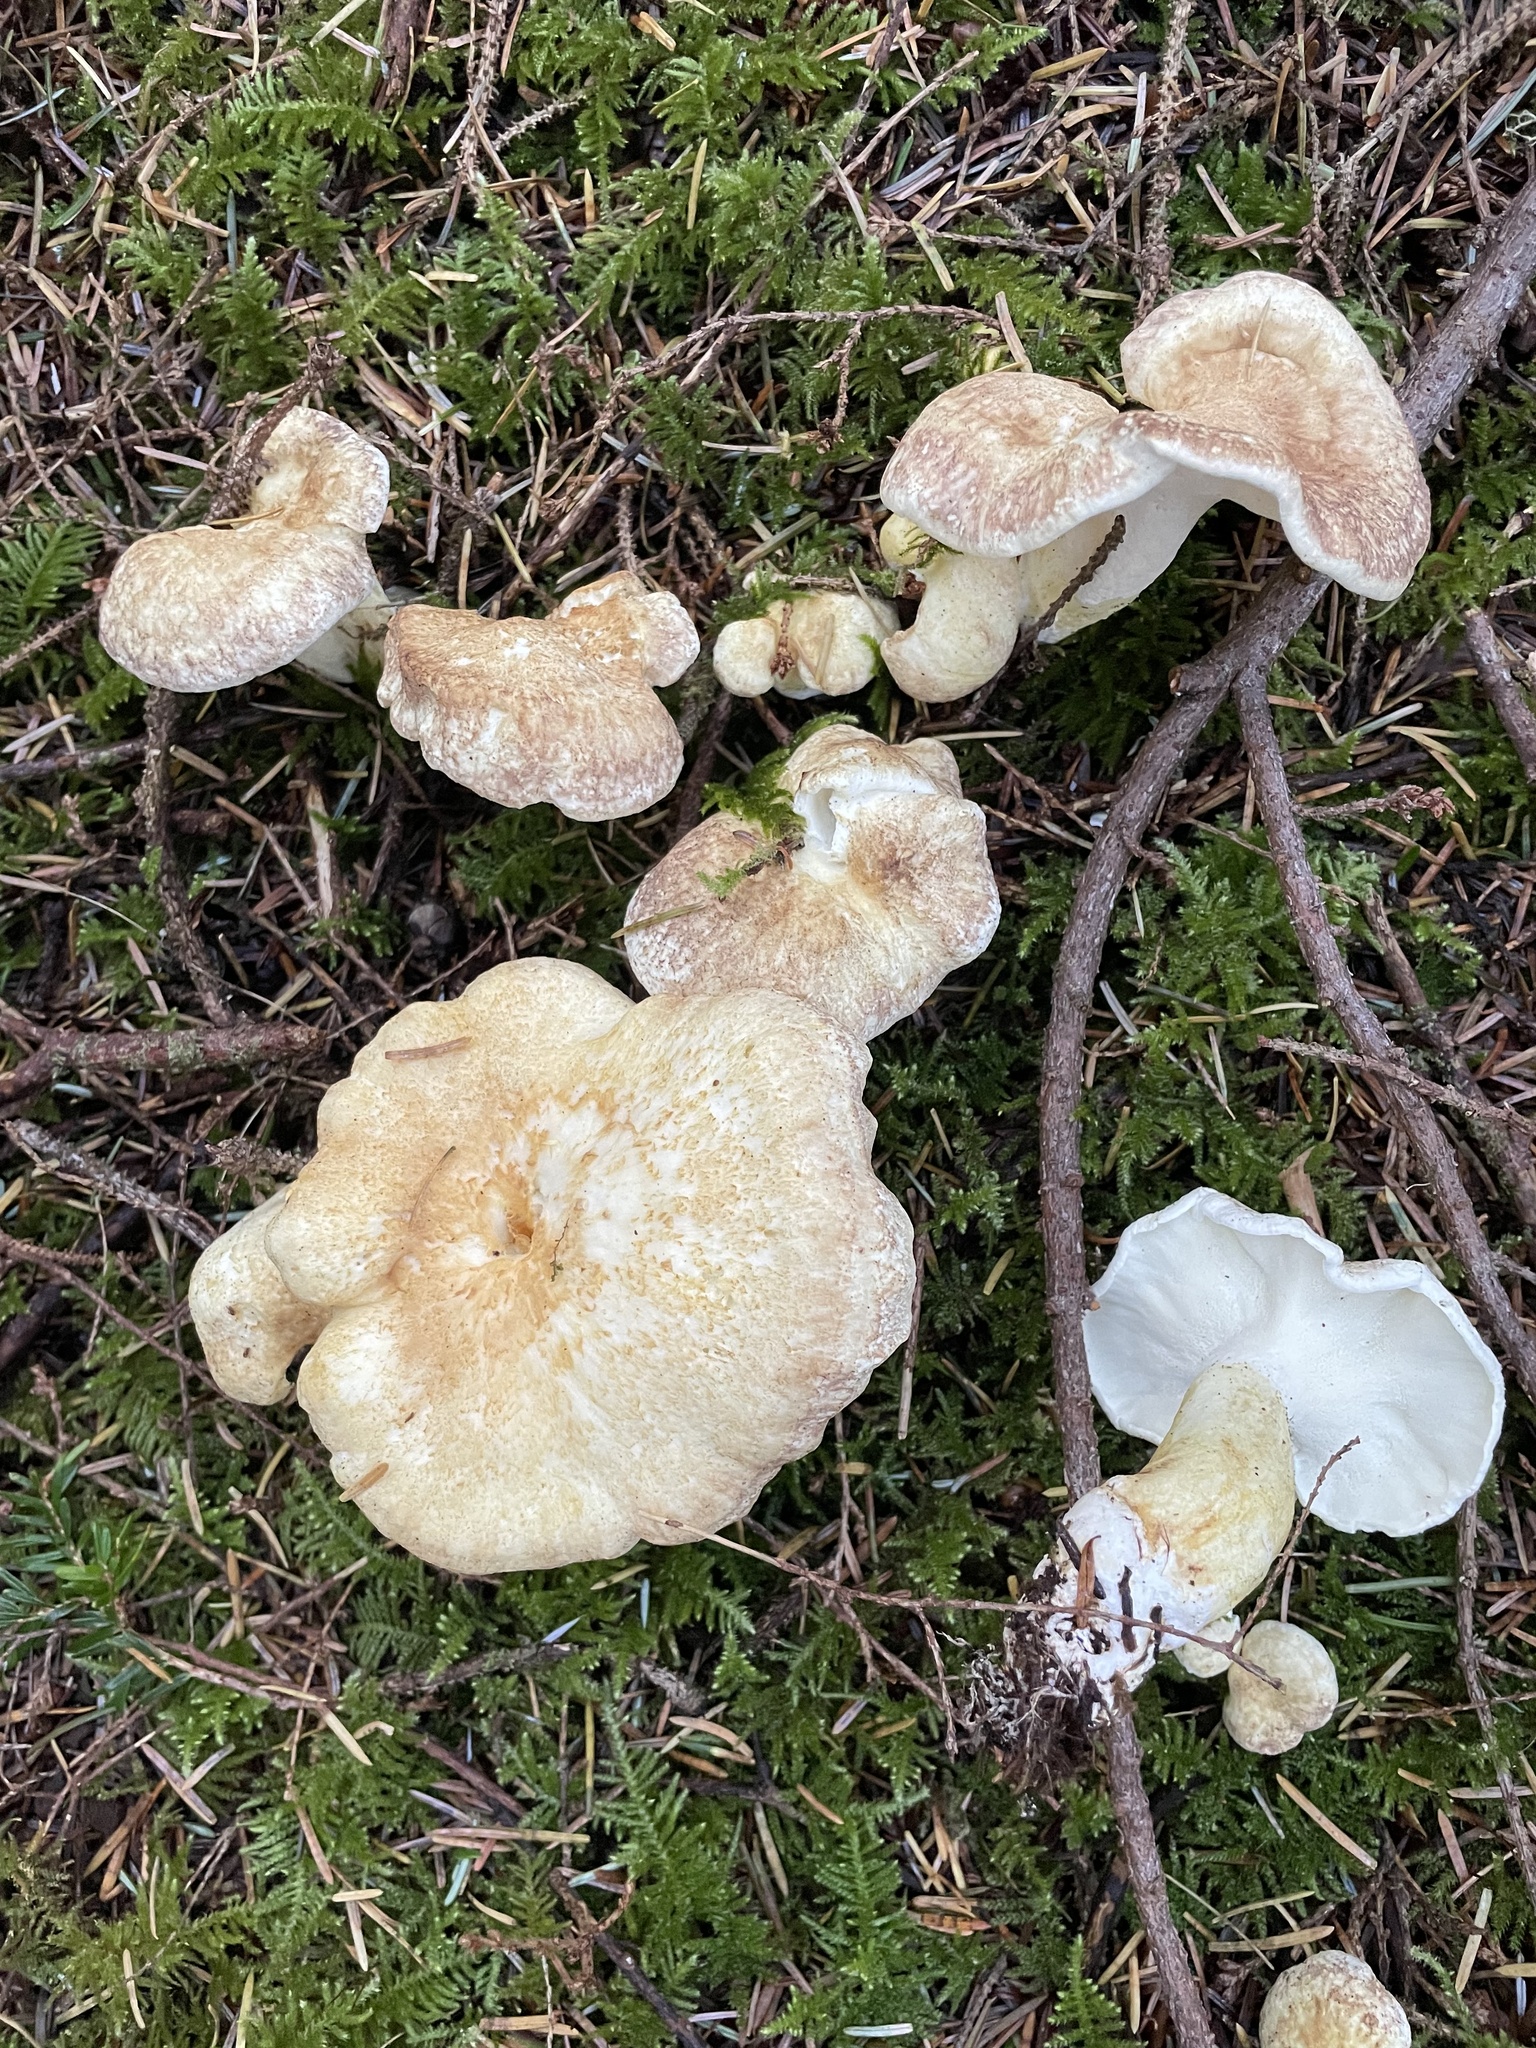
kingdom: Fungi
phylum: Basidiomycota
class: Agaricomycetes
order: Russulales
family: Albatrellaceae
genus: Albatrellus
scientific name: Albatrellus avellaneus
